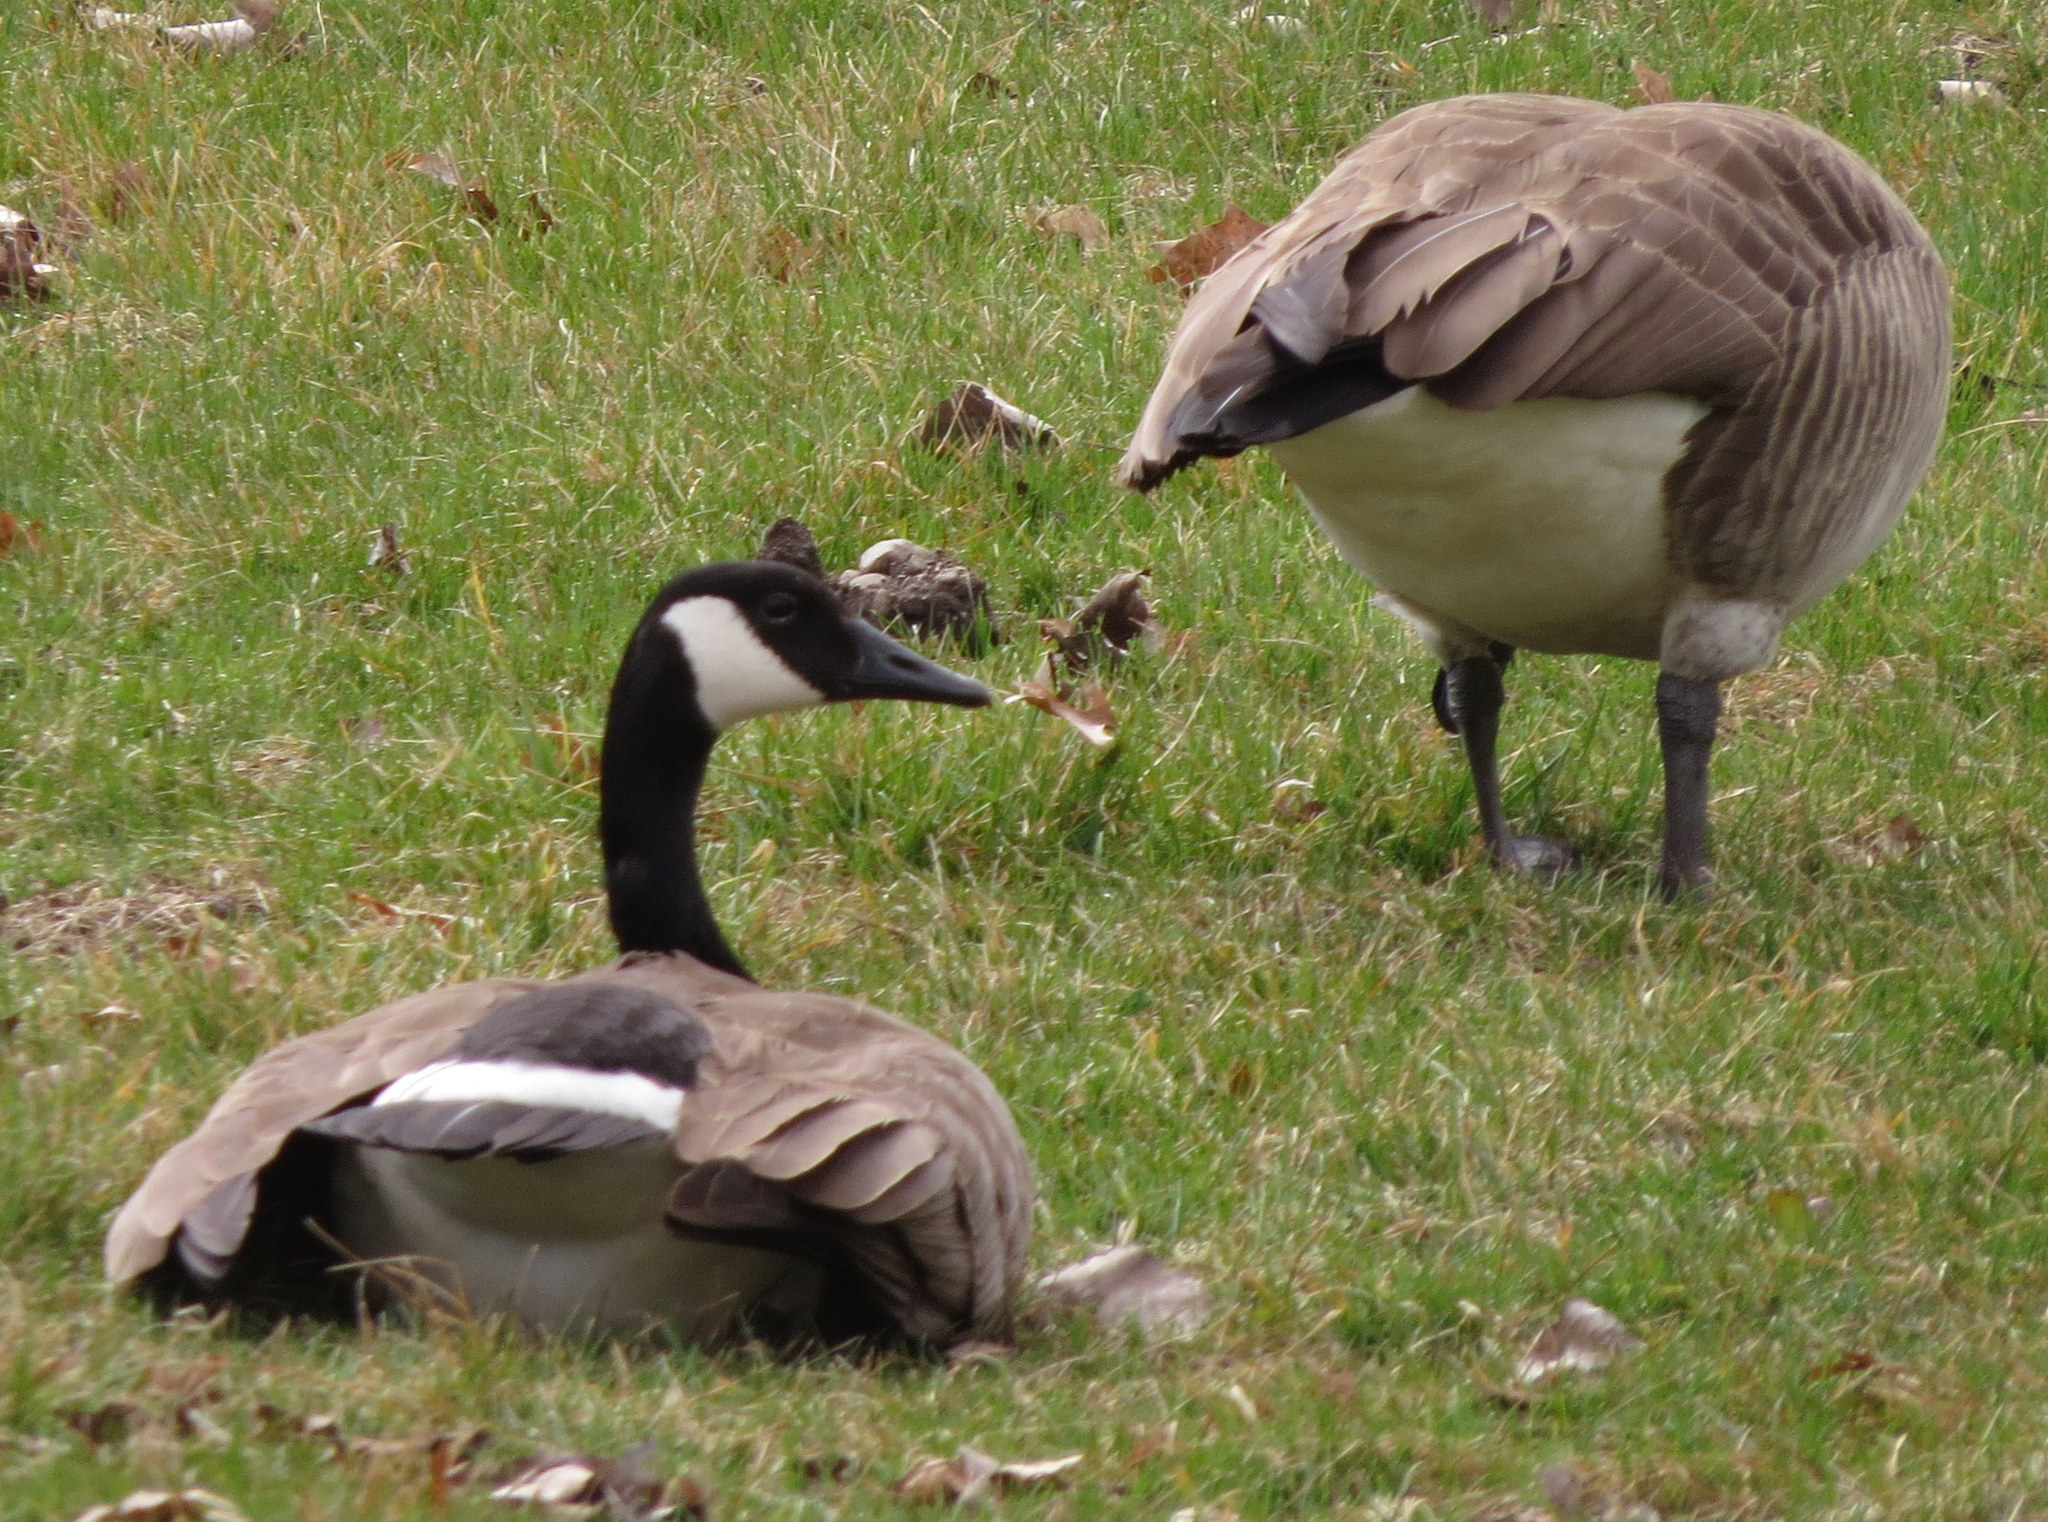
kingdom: Animalia
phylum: Chordata
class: Aves
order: Anseriformes
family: Anatidae
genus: Branta
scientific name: Branta canadensis
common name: Canada goose
